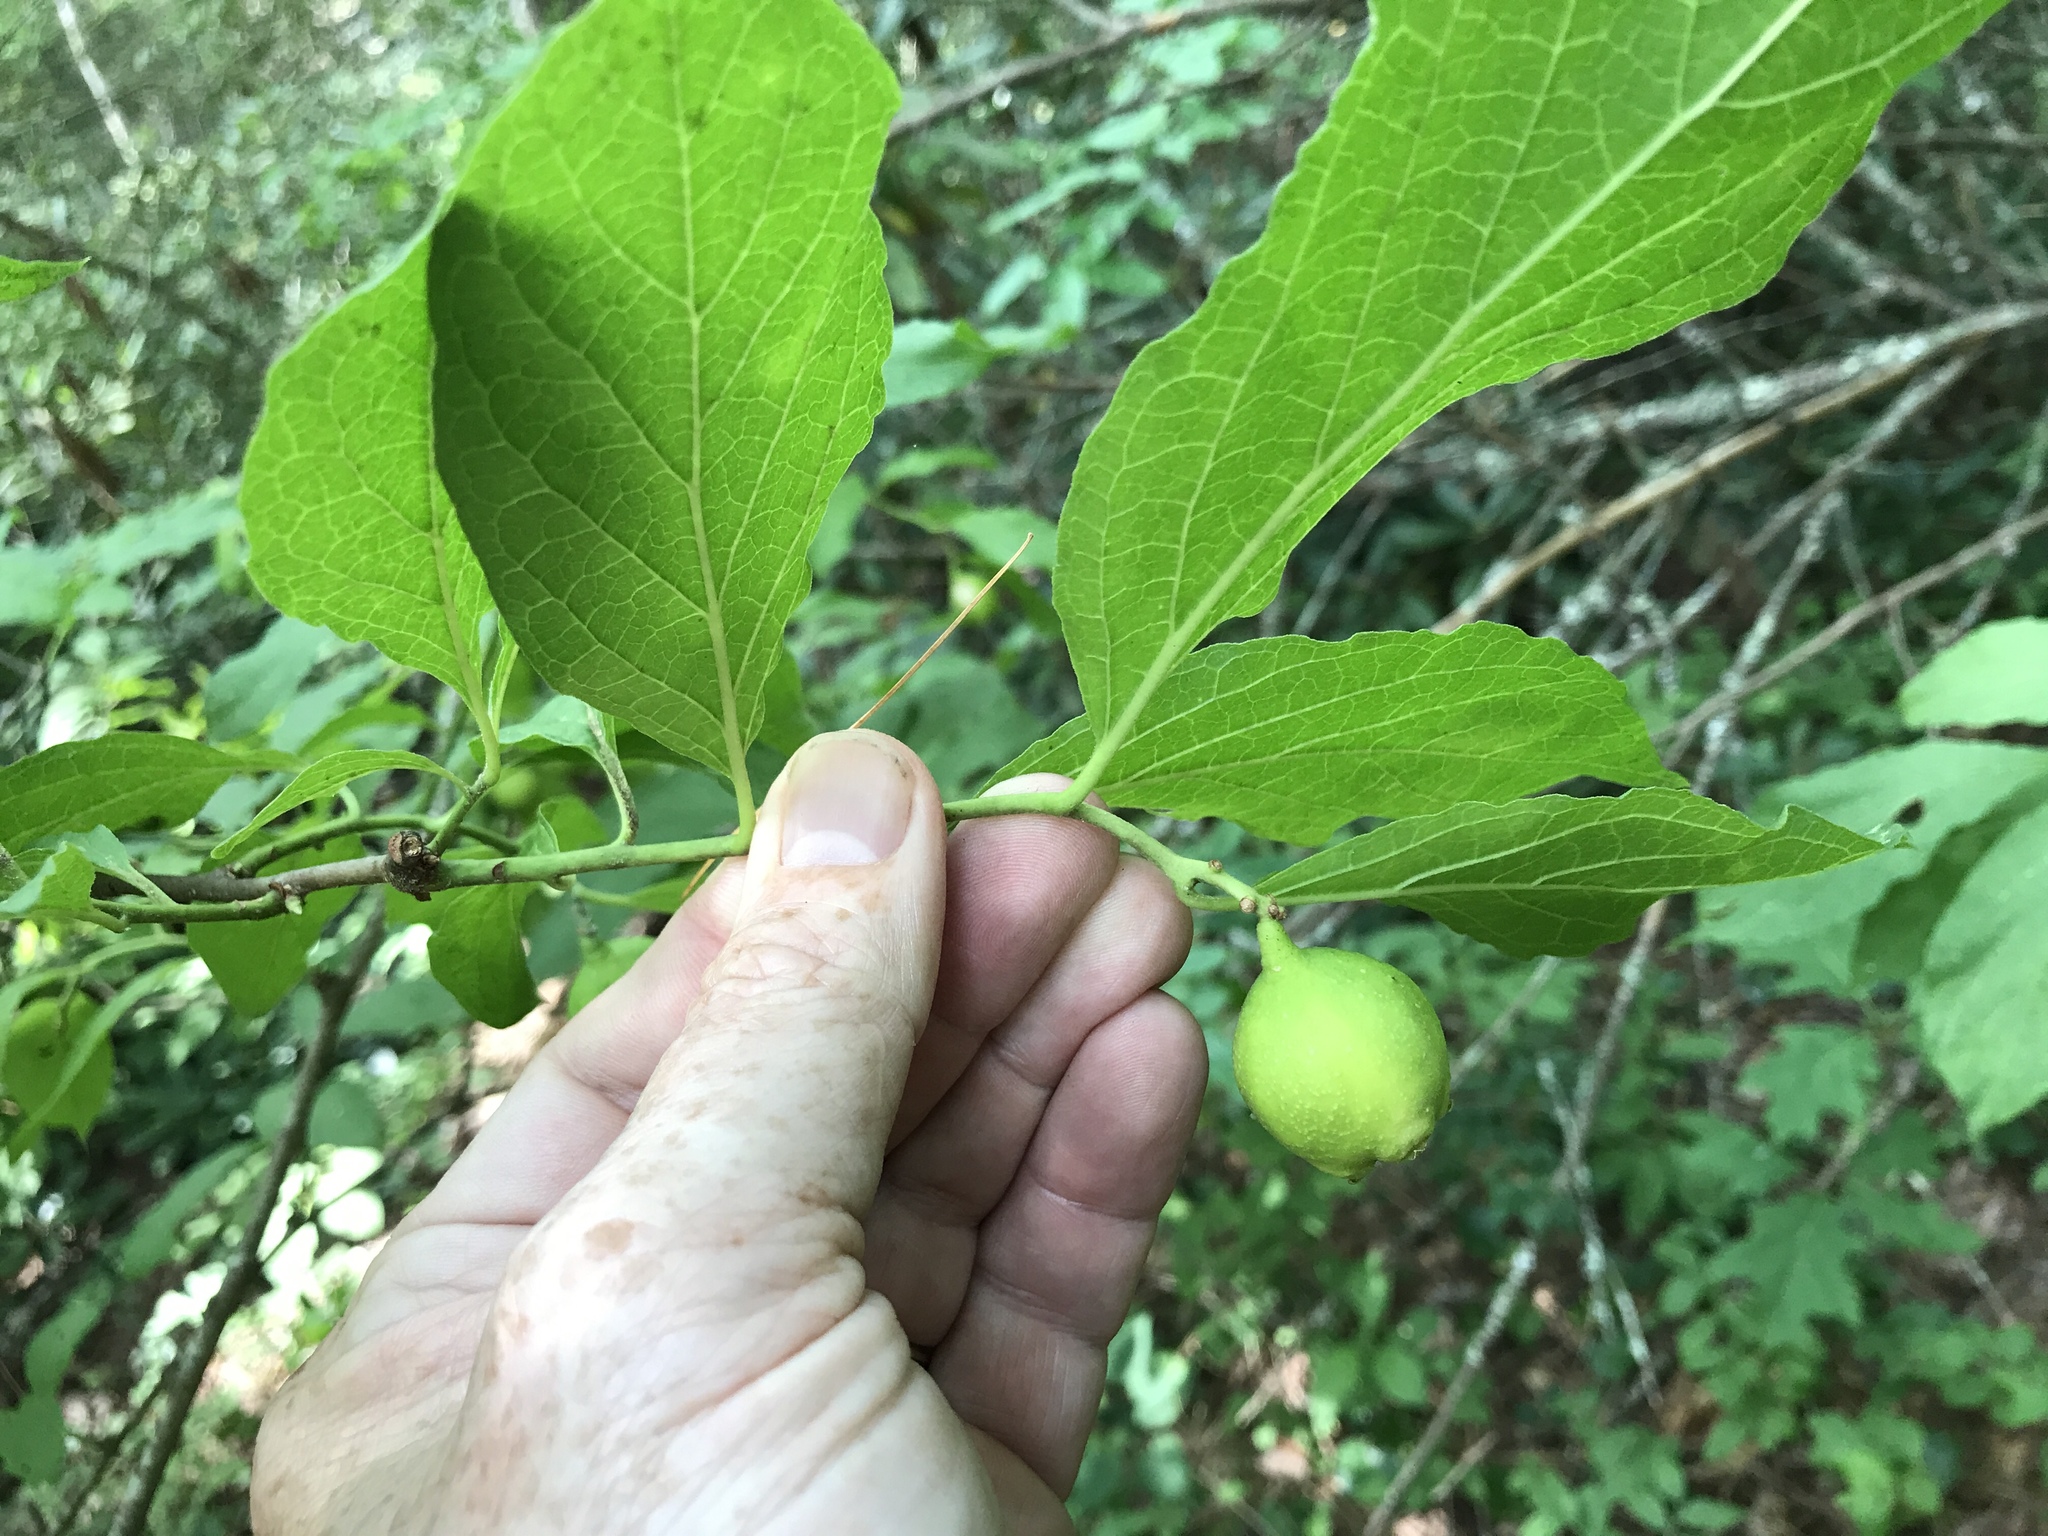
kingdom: Plantae
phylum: Tracheophyta
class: Magnoliopsida
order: Santalales
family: Cervantesiaceae
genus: Pyrularia
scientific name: Pyrularia pubera
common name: Oilnut
